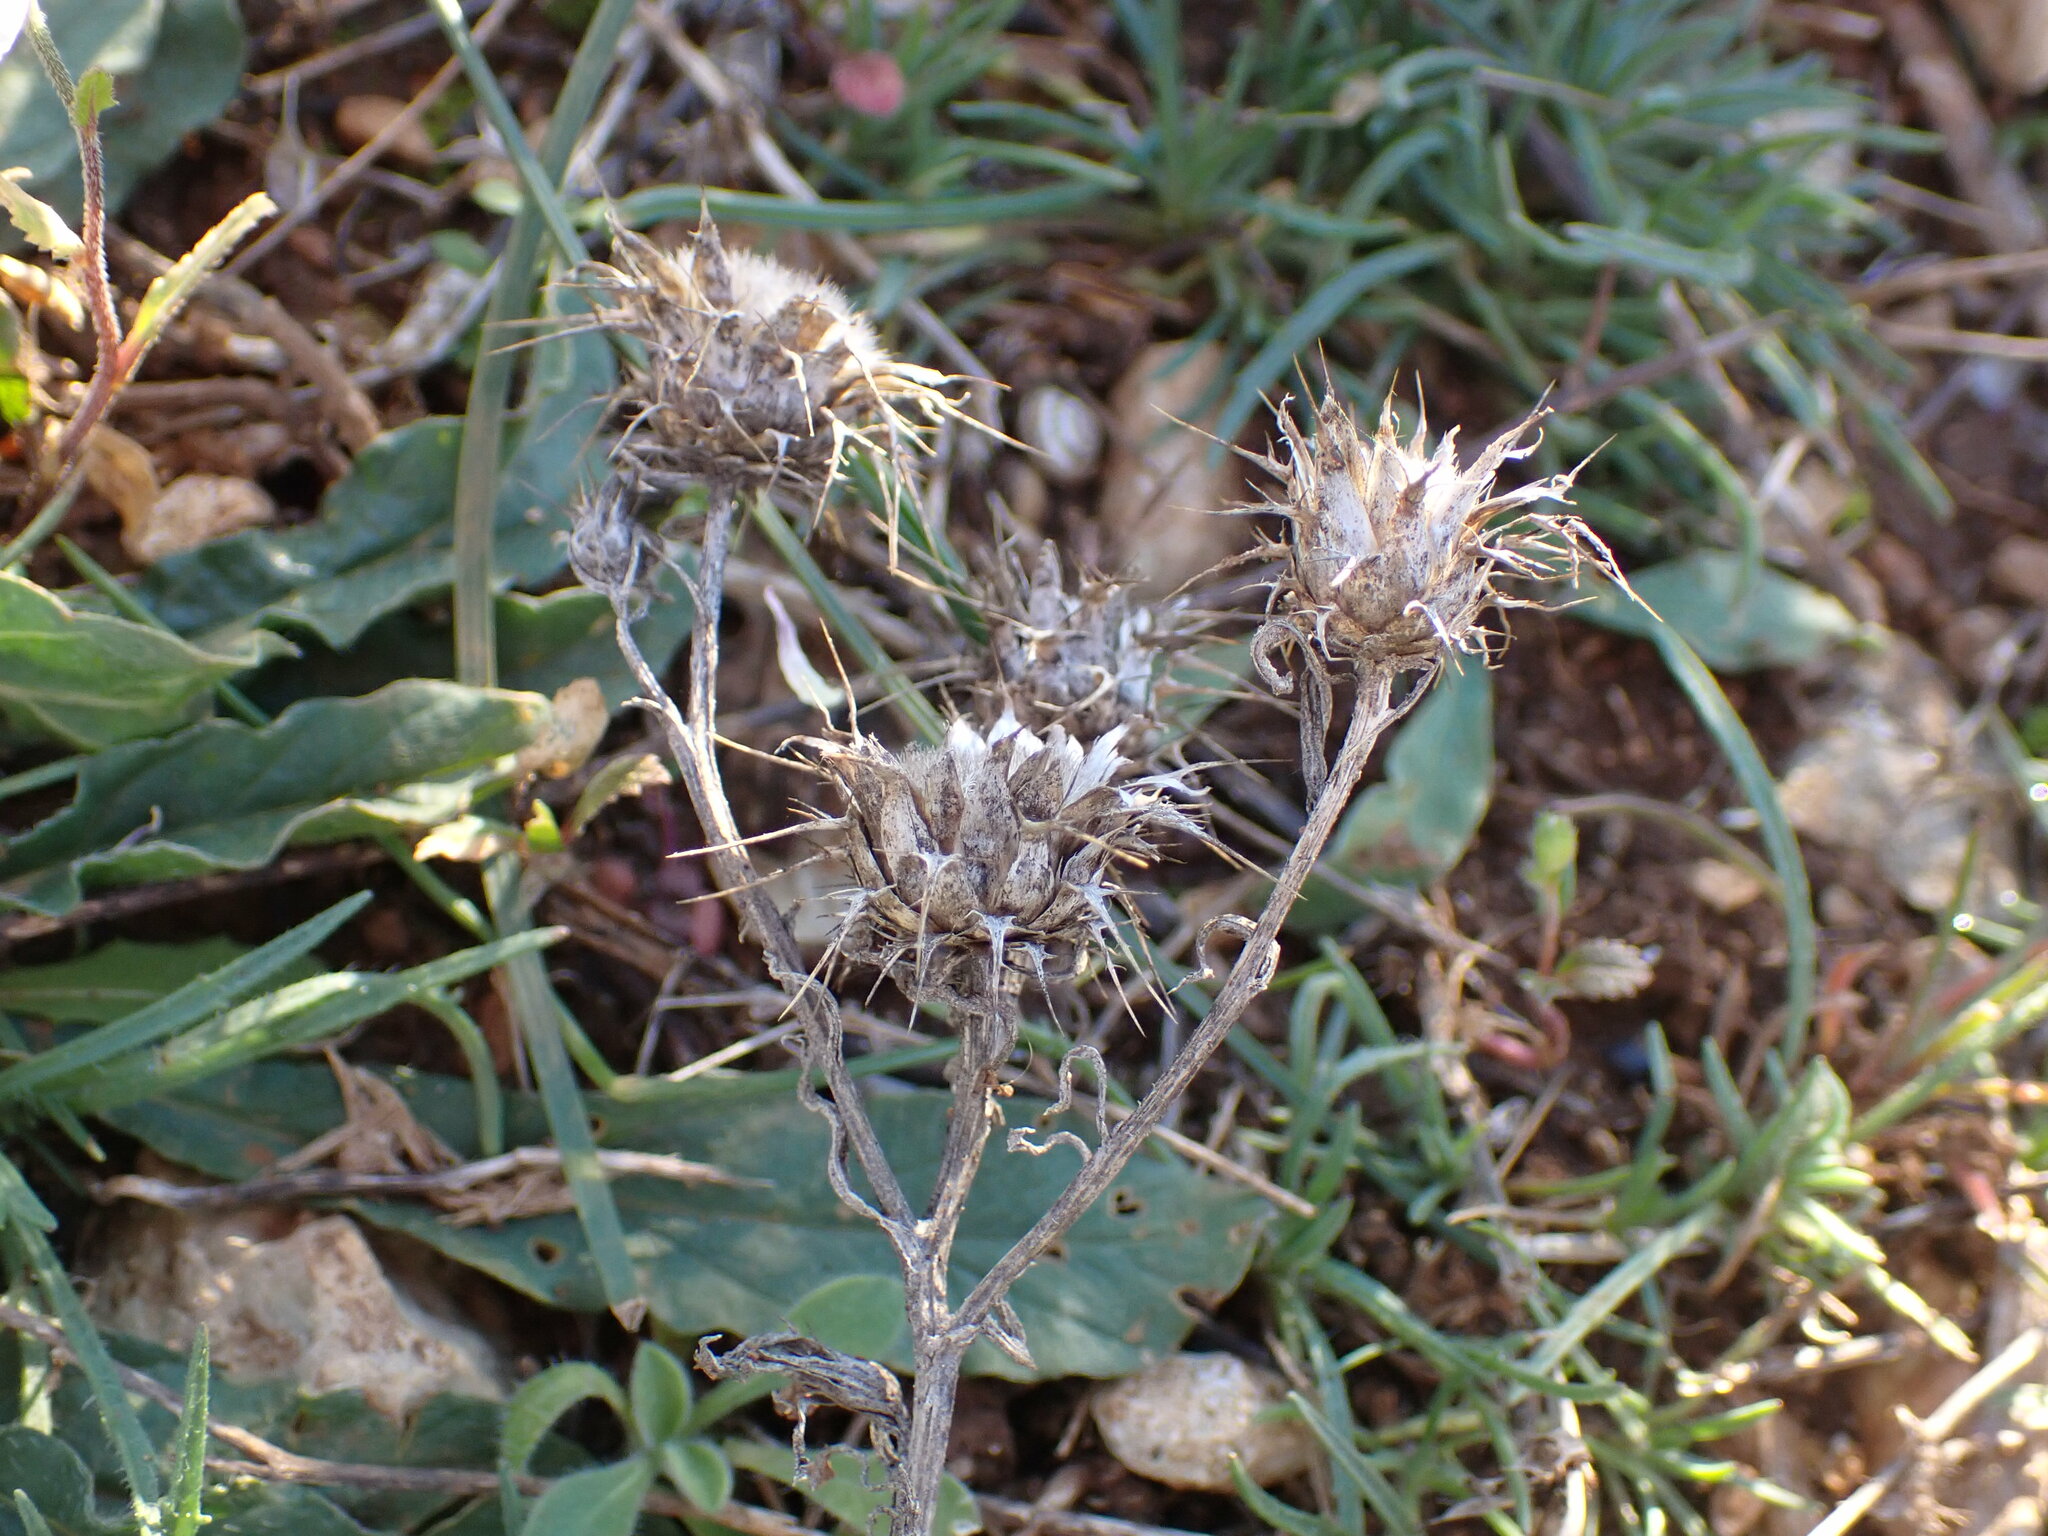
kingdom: Plantae
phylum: Tracheophyta
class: Magnoliopsida
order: Asterales
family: Asteraceae
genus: Centaurea
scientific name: Centaurea melitensis
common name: Maltese star-thistle
